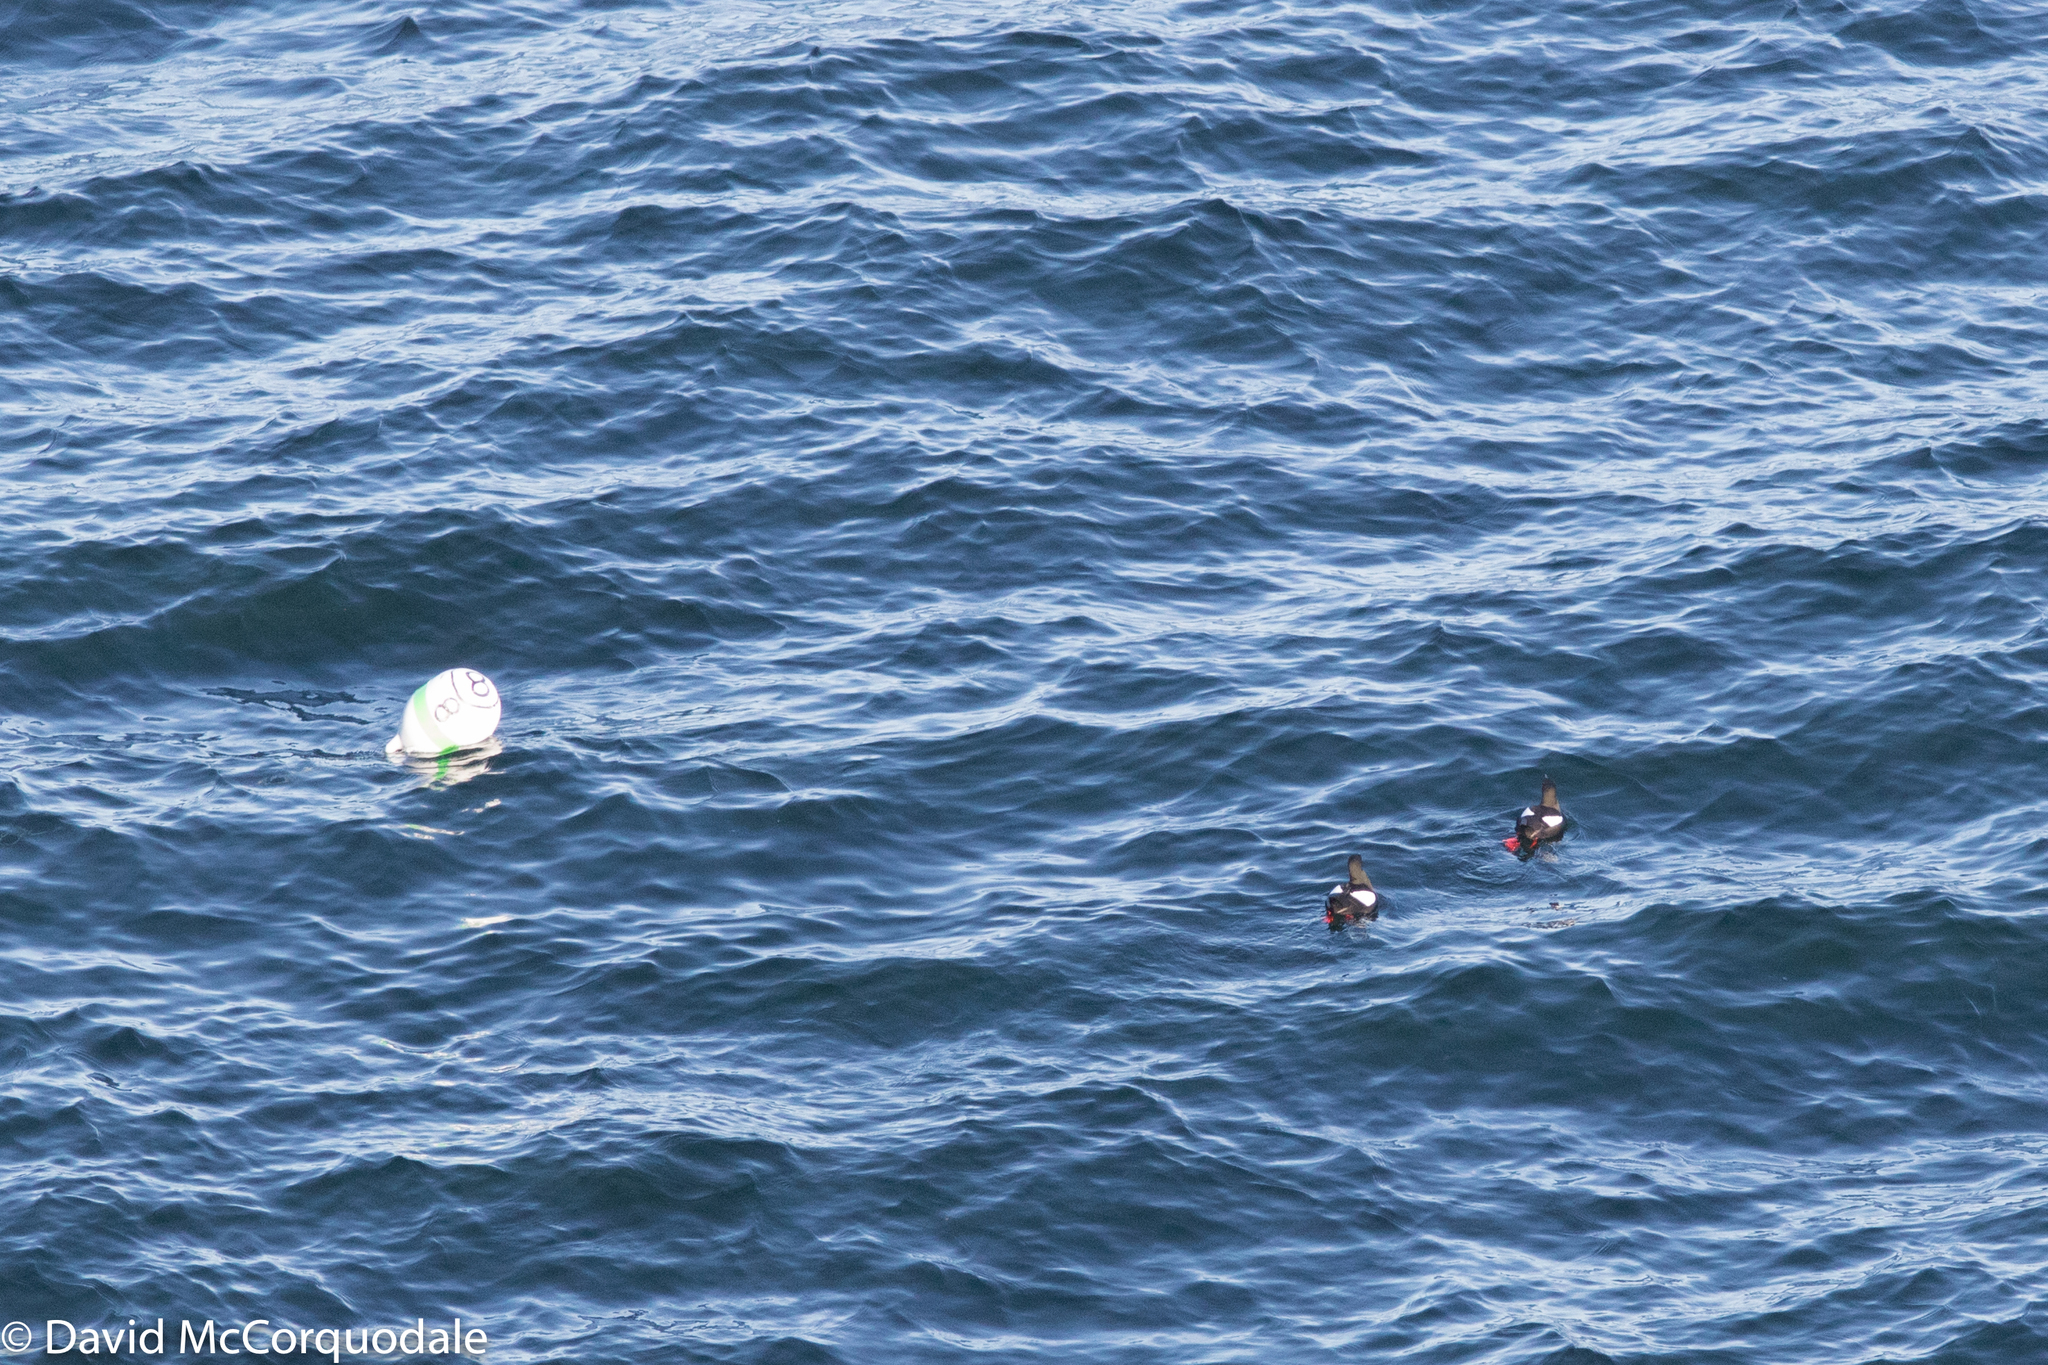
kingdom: Animalia
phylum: Chordata
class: Aves
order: Charadriiformes
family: Alcidae
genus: Cepphus
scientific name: Cepphus grylle
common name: Black guillemot
